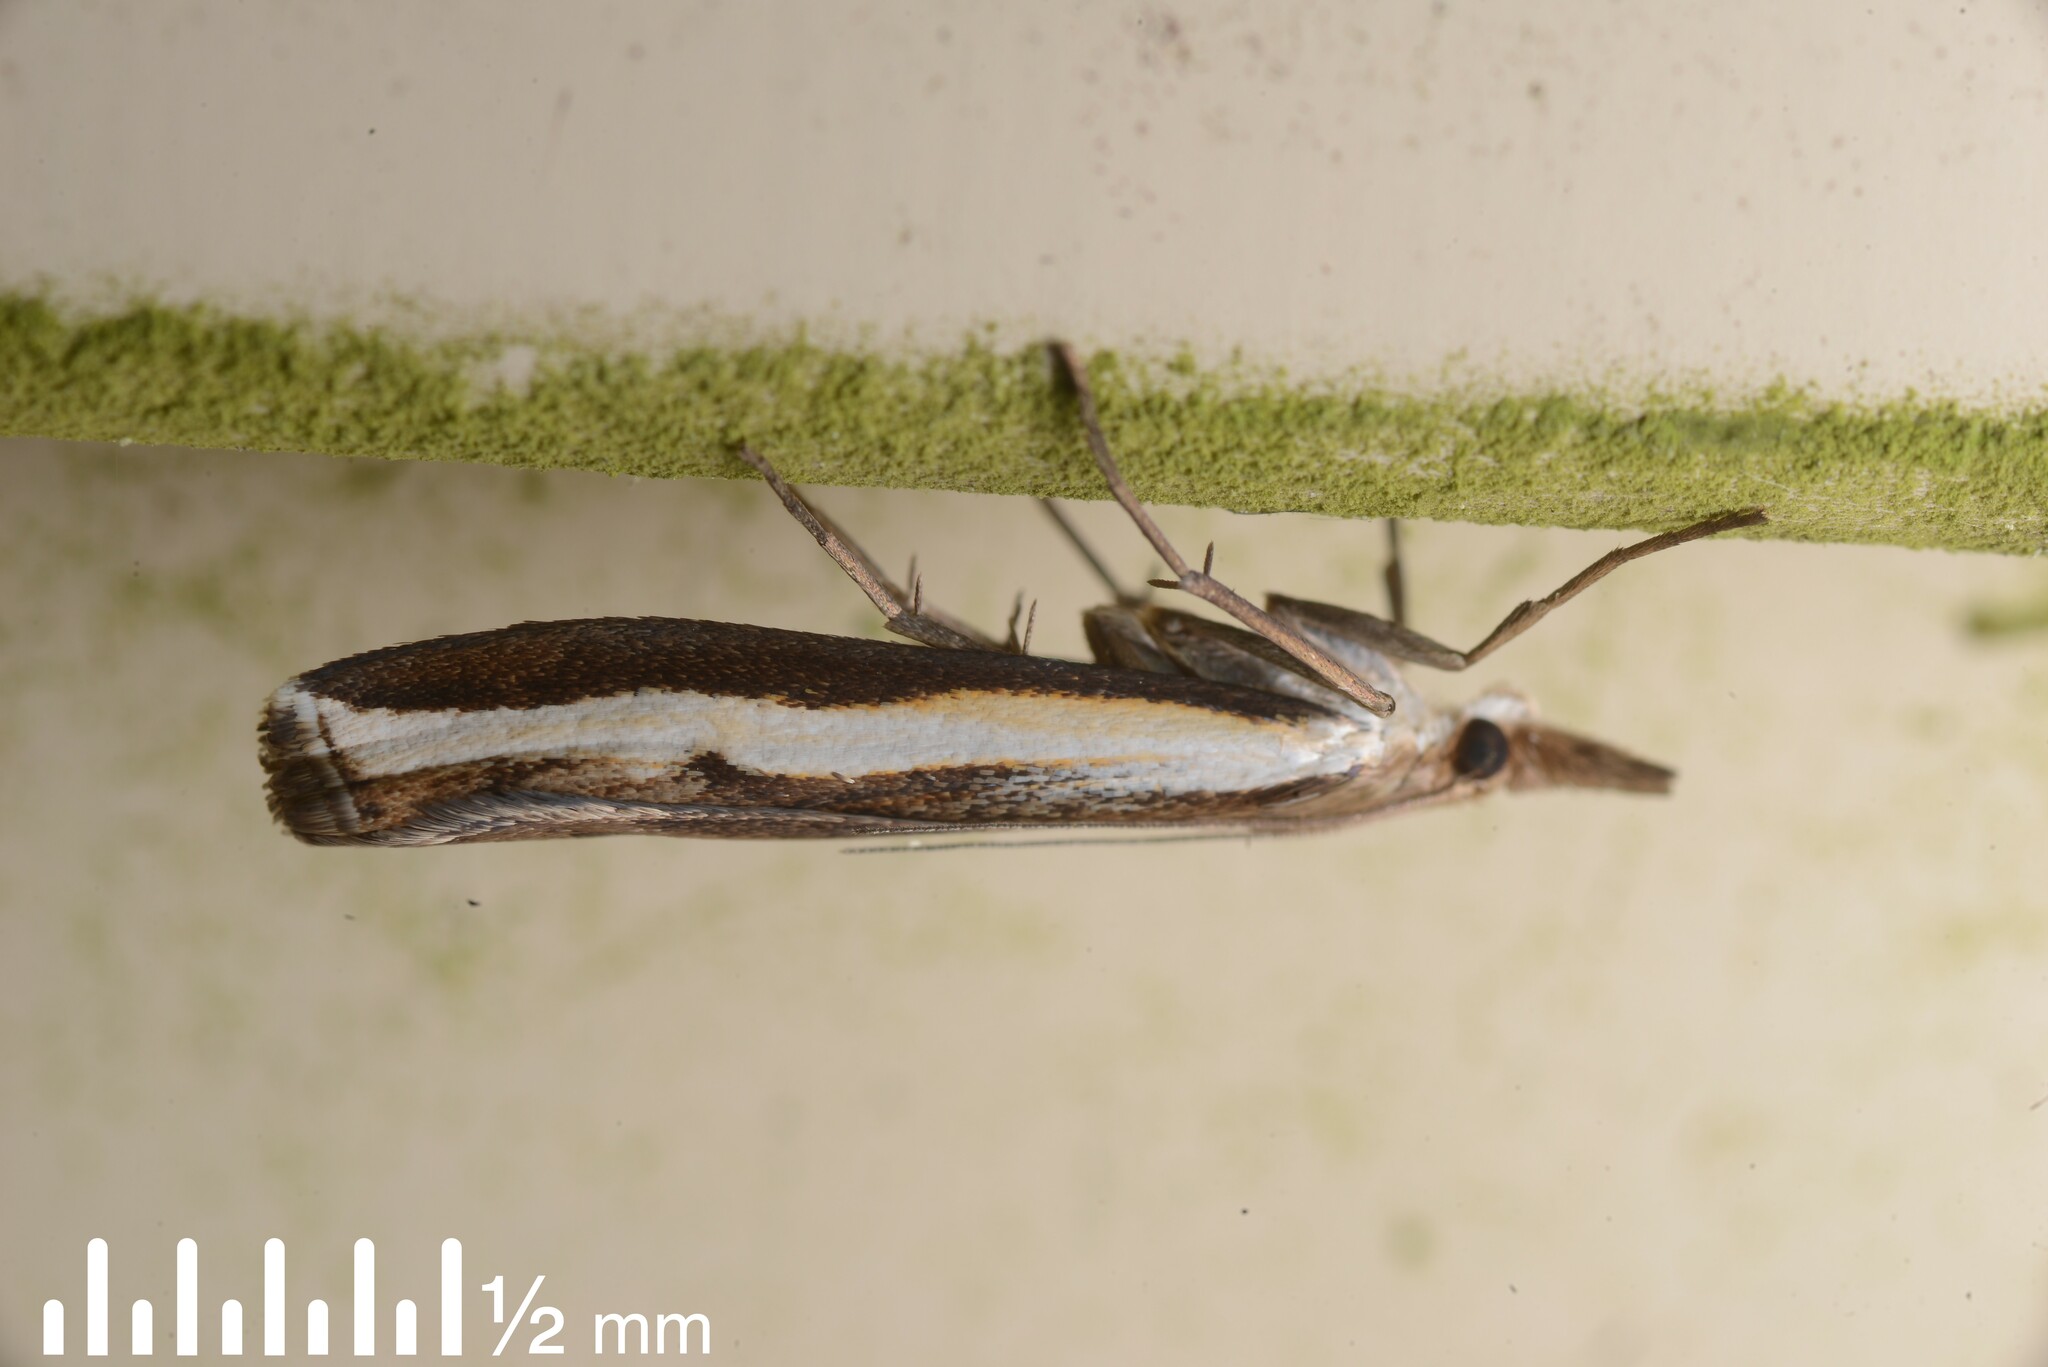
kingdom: Animalia
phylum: Arthropoda
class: Insecta
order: Lepidoptera
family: Crambidae
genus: Orocrambus
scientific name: Orocrambus flexuosellus
